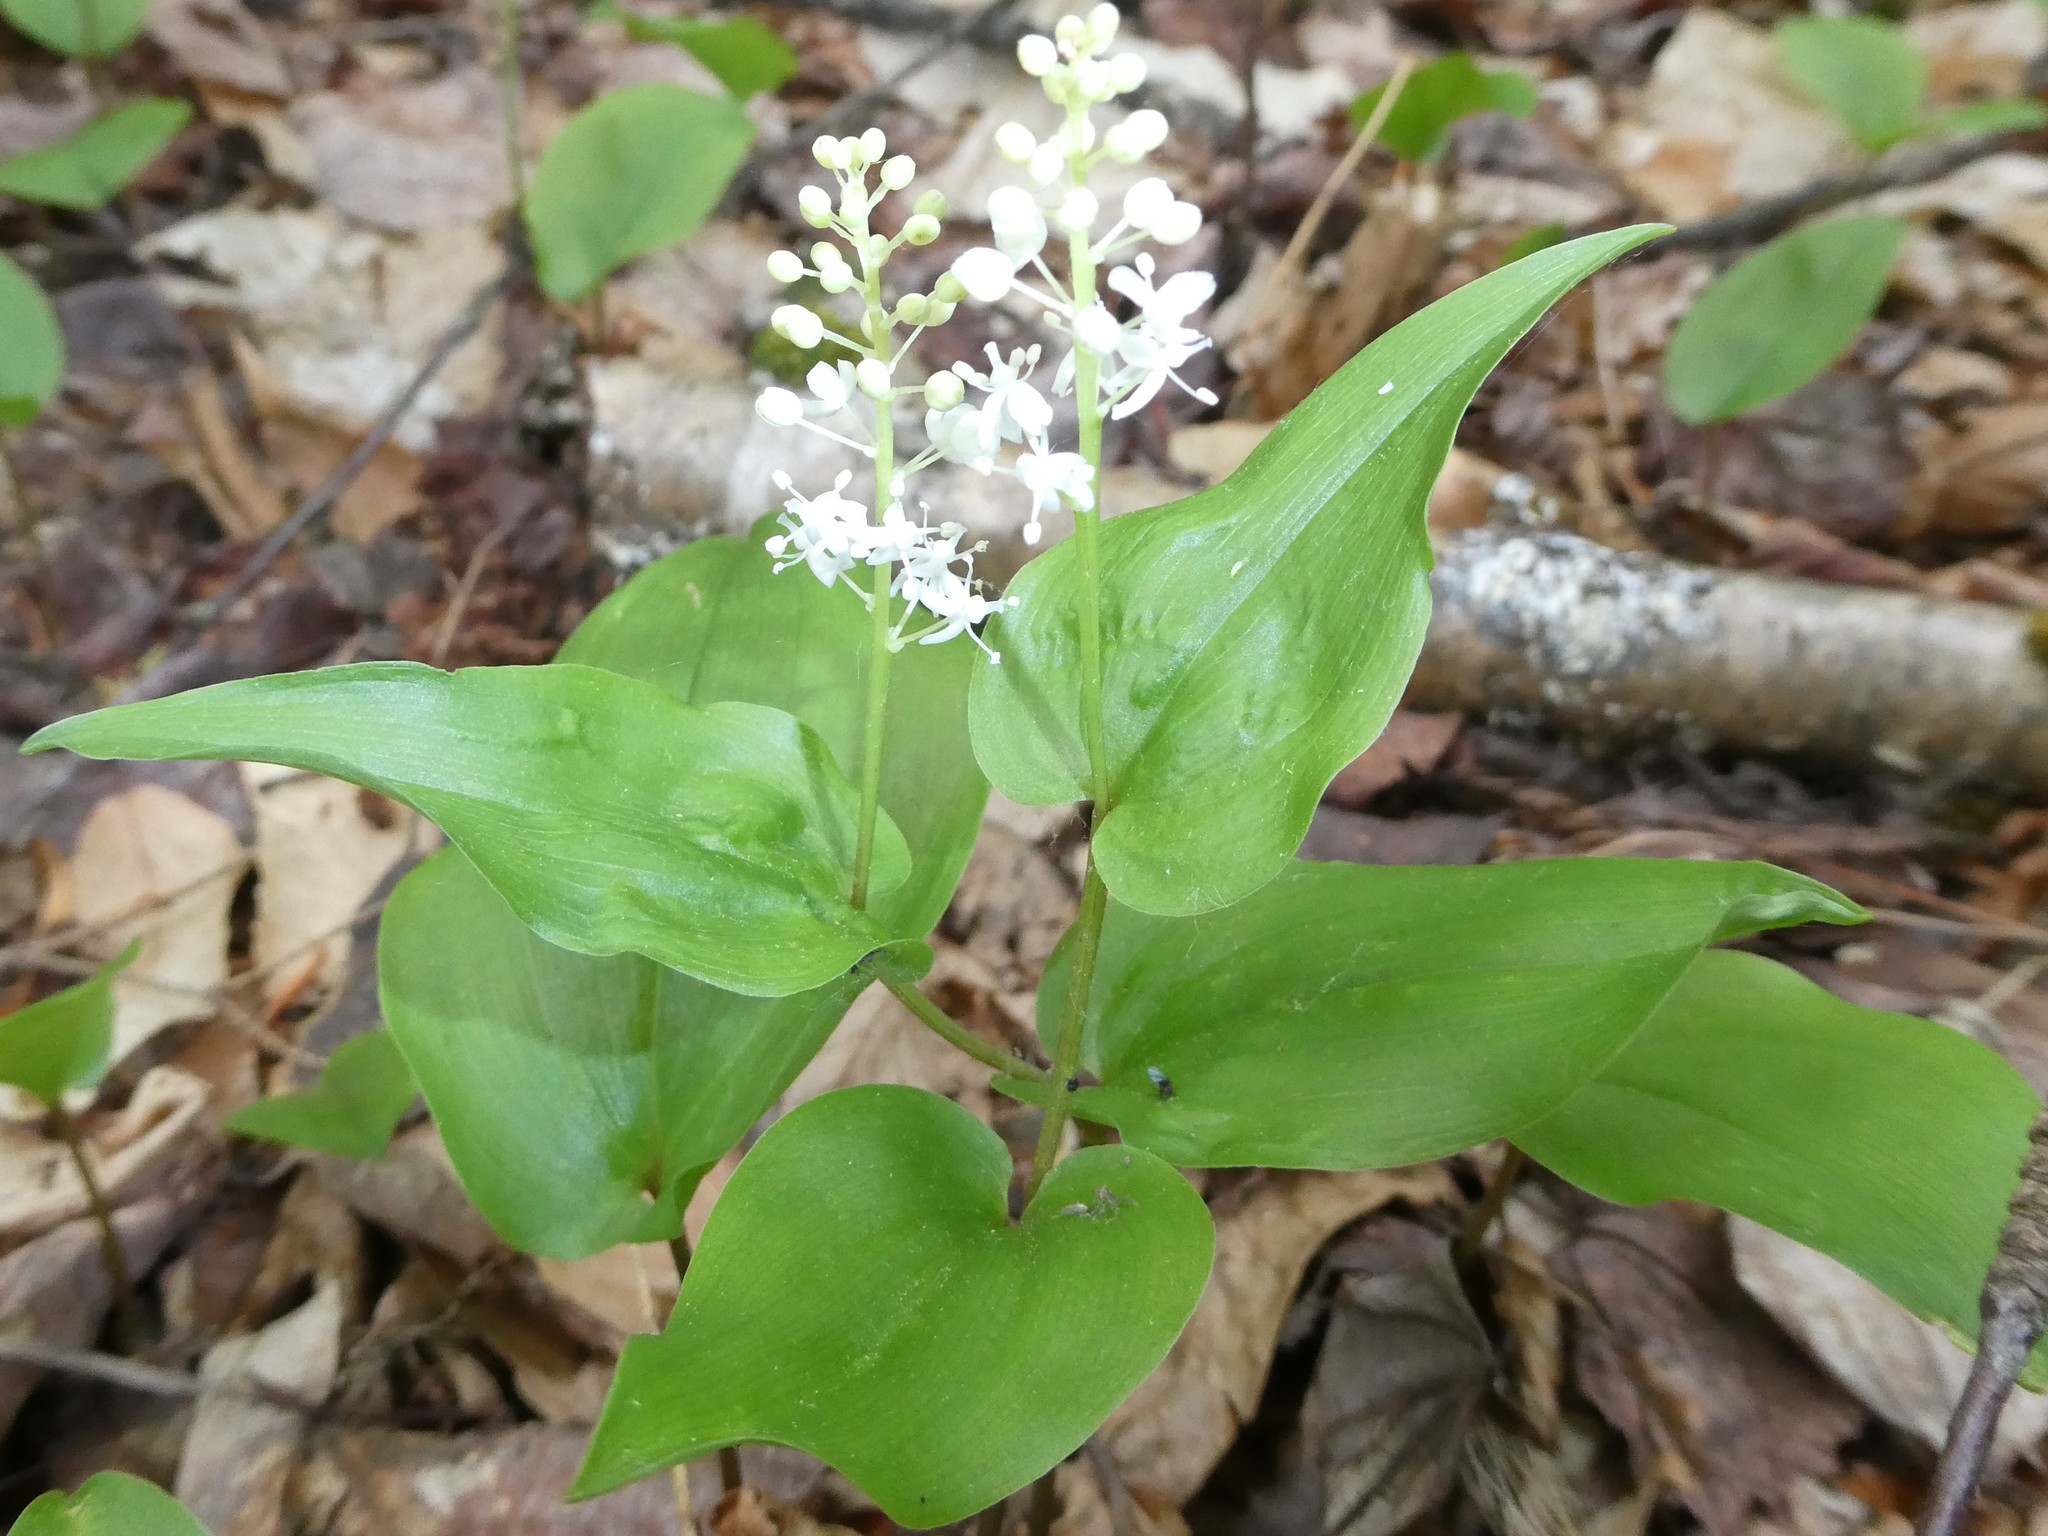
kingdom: Plantae
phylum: Tracheophyta
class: Liliopsida
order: Asparagales
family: Asparagaceae
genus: Maianthemum
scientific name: Maianthemum canadense
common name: False lily-of-the-valley
